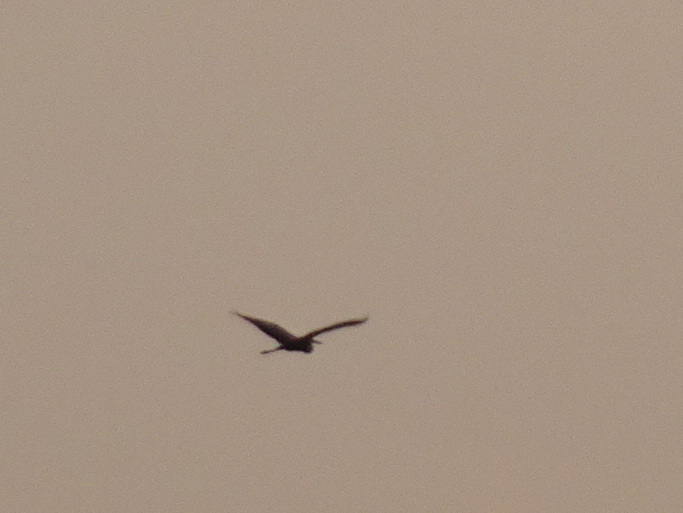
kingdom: Animalia
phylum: Chordata
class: Aves
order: Pelecaniformes
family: Ardeidae
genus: Ardea
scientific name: Ardea herodias
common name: Great blue heron
